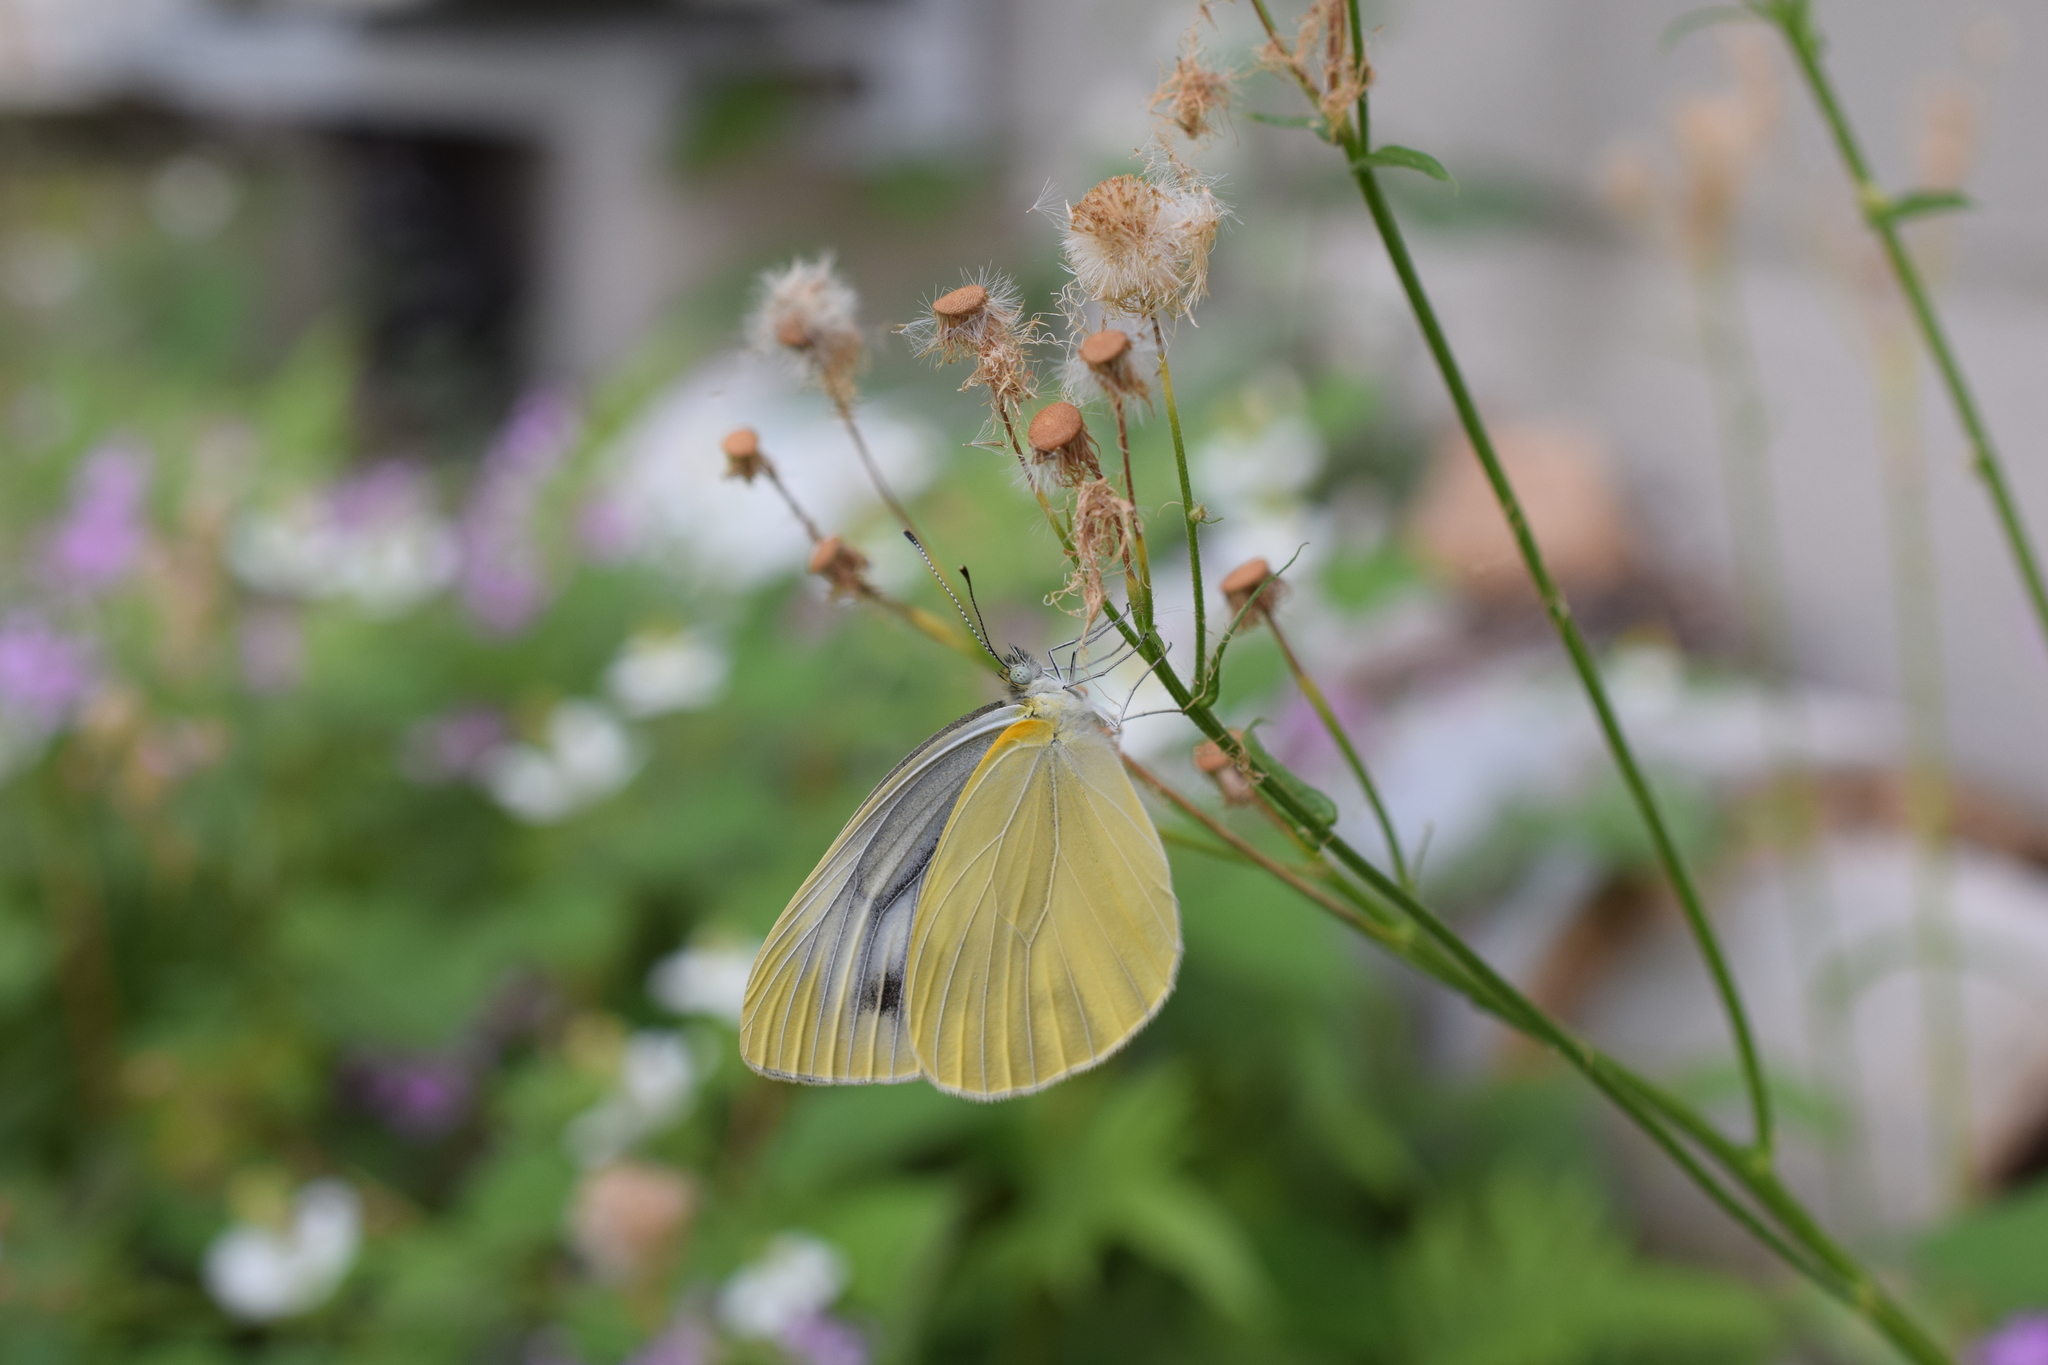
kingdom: Animalia
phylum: Arthropoda
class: Insecta
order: Lepidoptera
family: Pieridae
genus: Pieris
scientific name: Pieris rapae
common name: Small white
